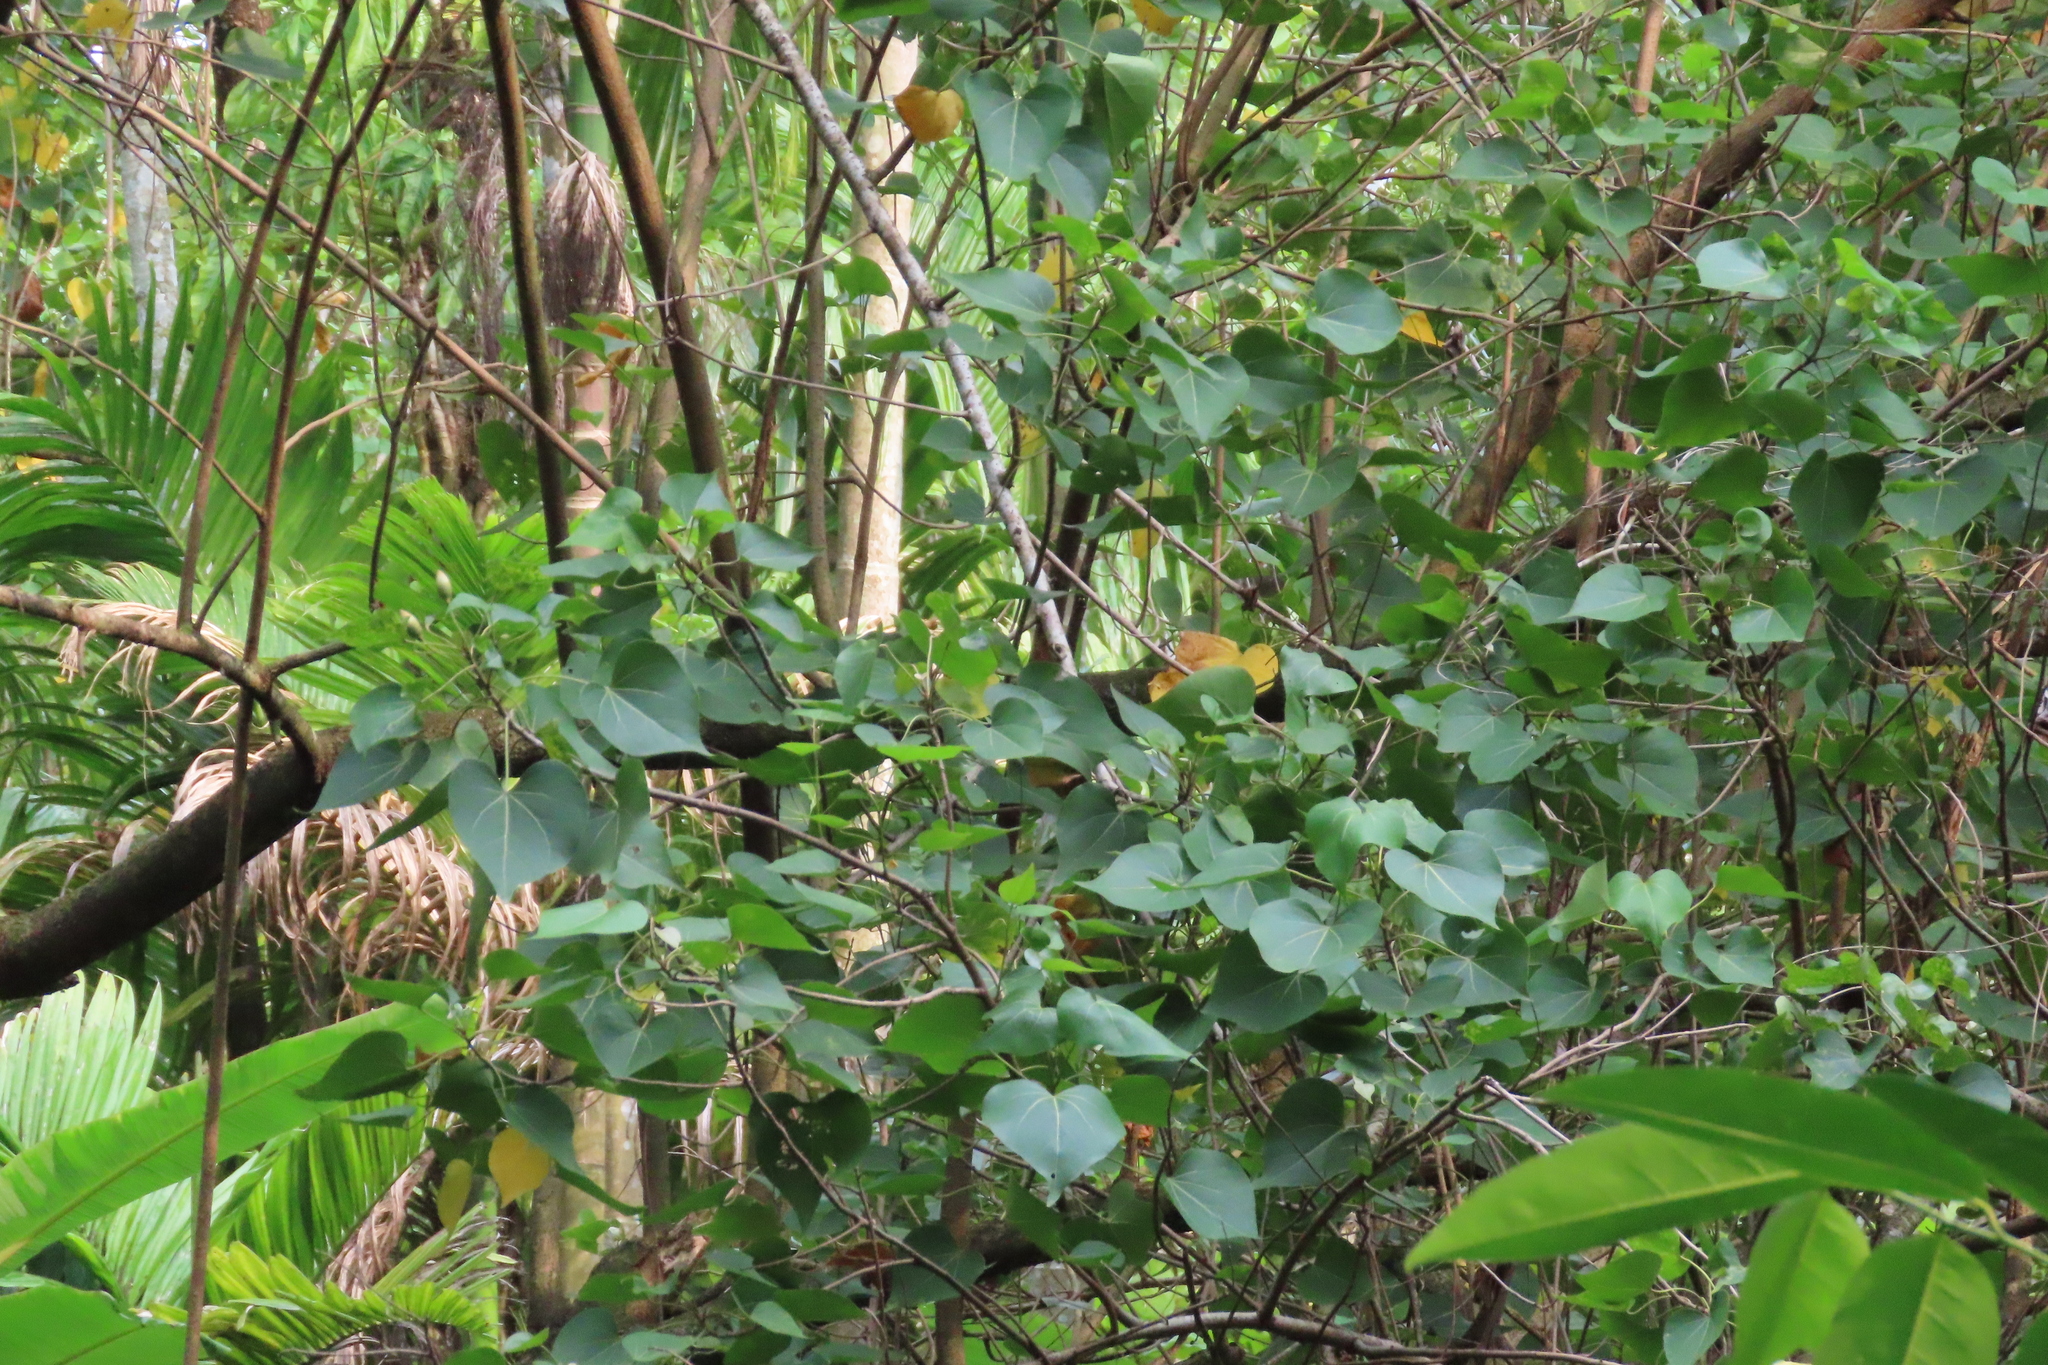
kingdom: Plantae
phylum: Tracheophyta
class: Magnoliopsida
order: Malvales
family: Malvaceae
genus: Thespesia
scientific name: Thespesia populnea
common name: Seaside mahoe
